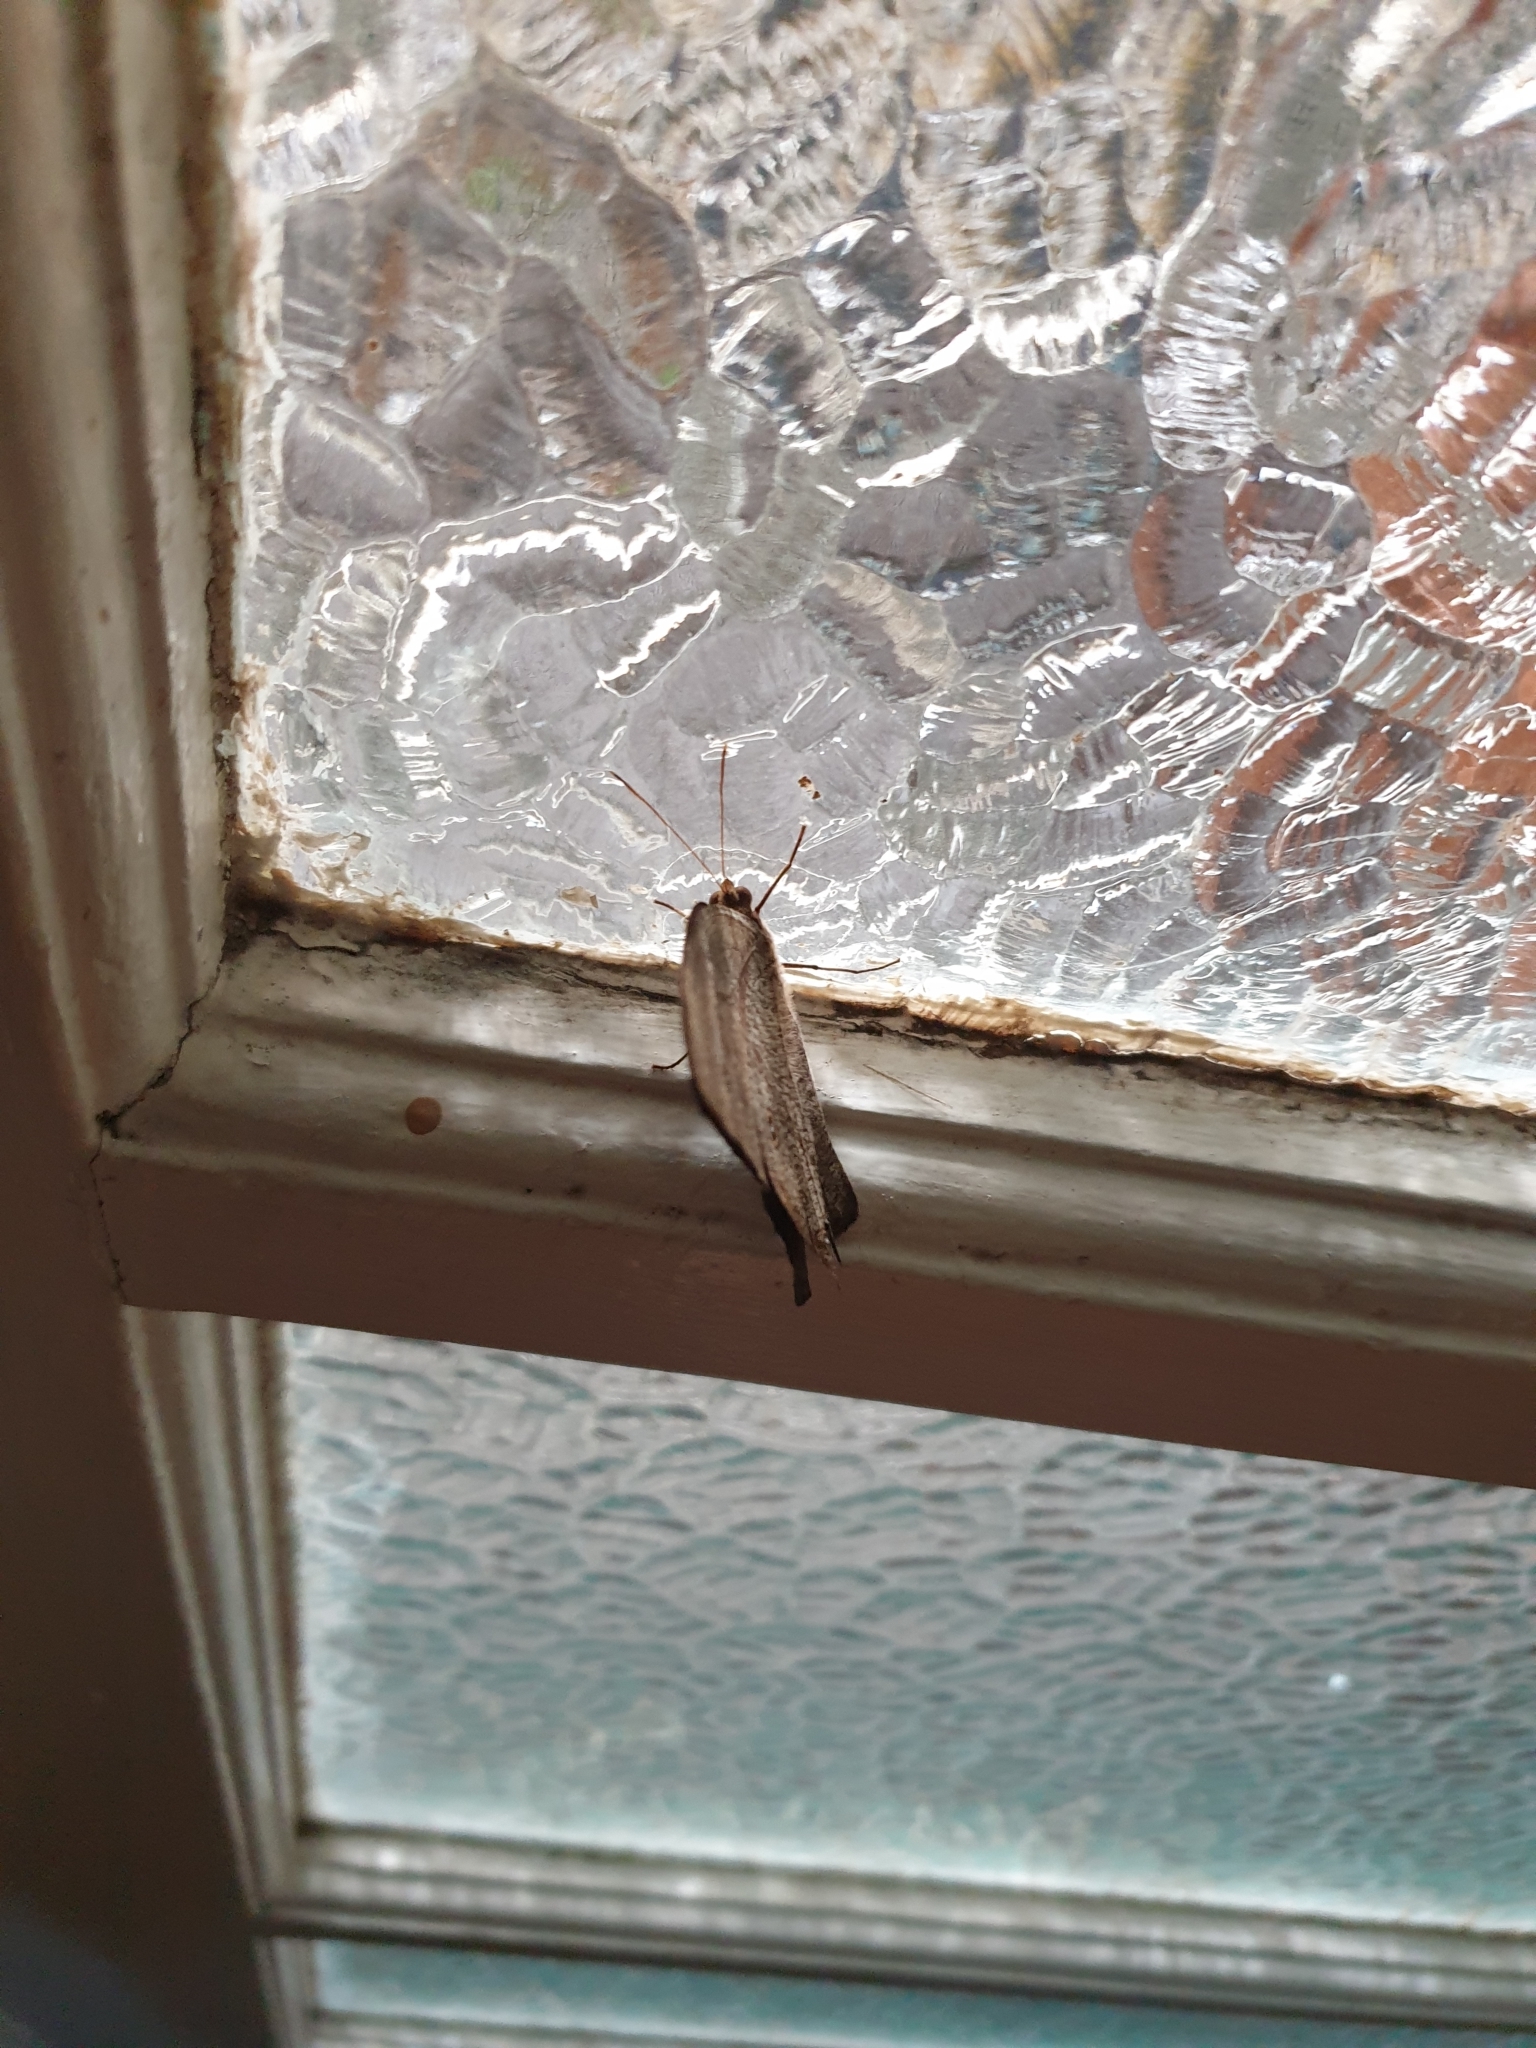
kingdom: Animalia
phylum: Arthropoda
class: Insecta
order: Lepidoptera
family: Nymphalidae
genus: Melanitis
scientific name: Melanitis leda
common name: Twilight brown
